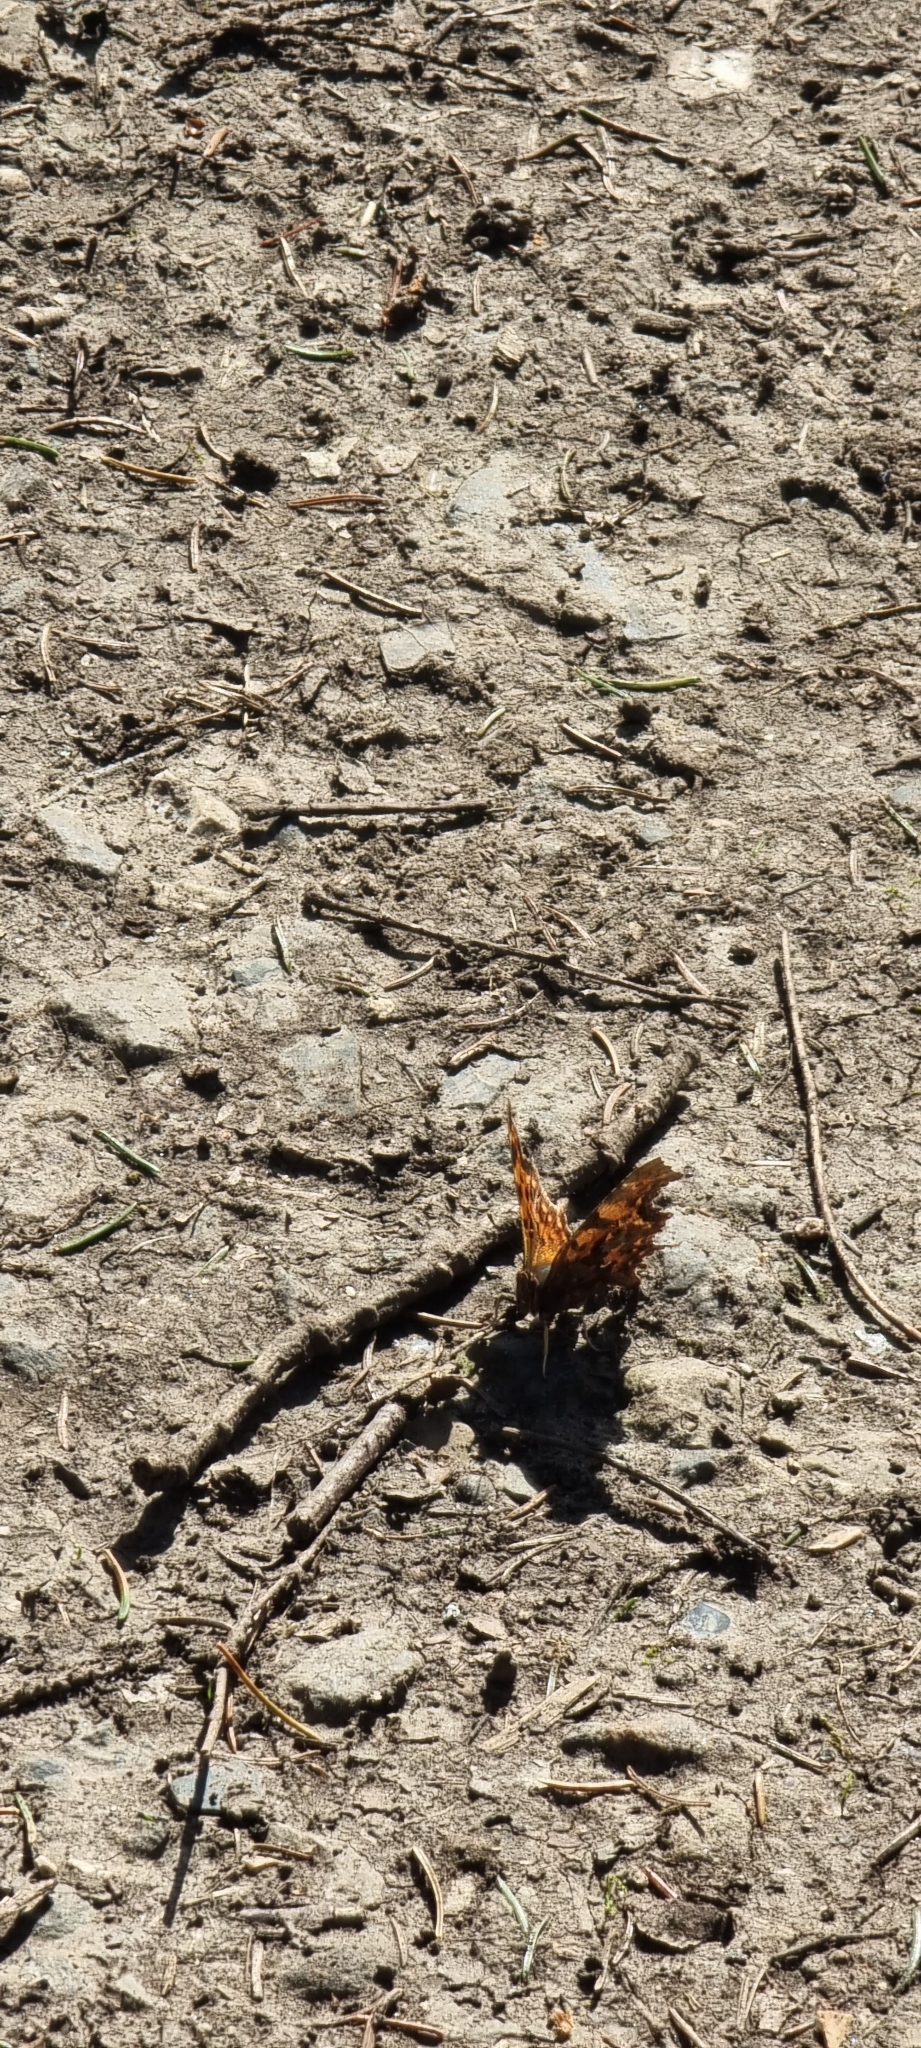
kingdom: Animalia
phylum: Arthropoda
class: Insecta
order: Lepidoptera
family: Nymphalidae
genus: Polygonia
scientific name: Polygonia c-album
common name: Comma
